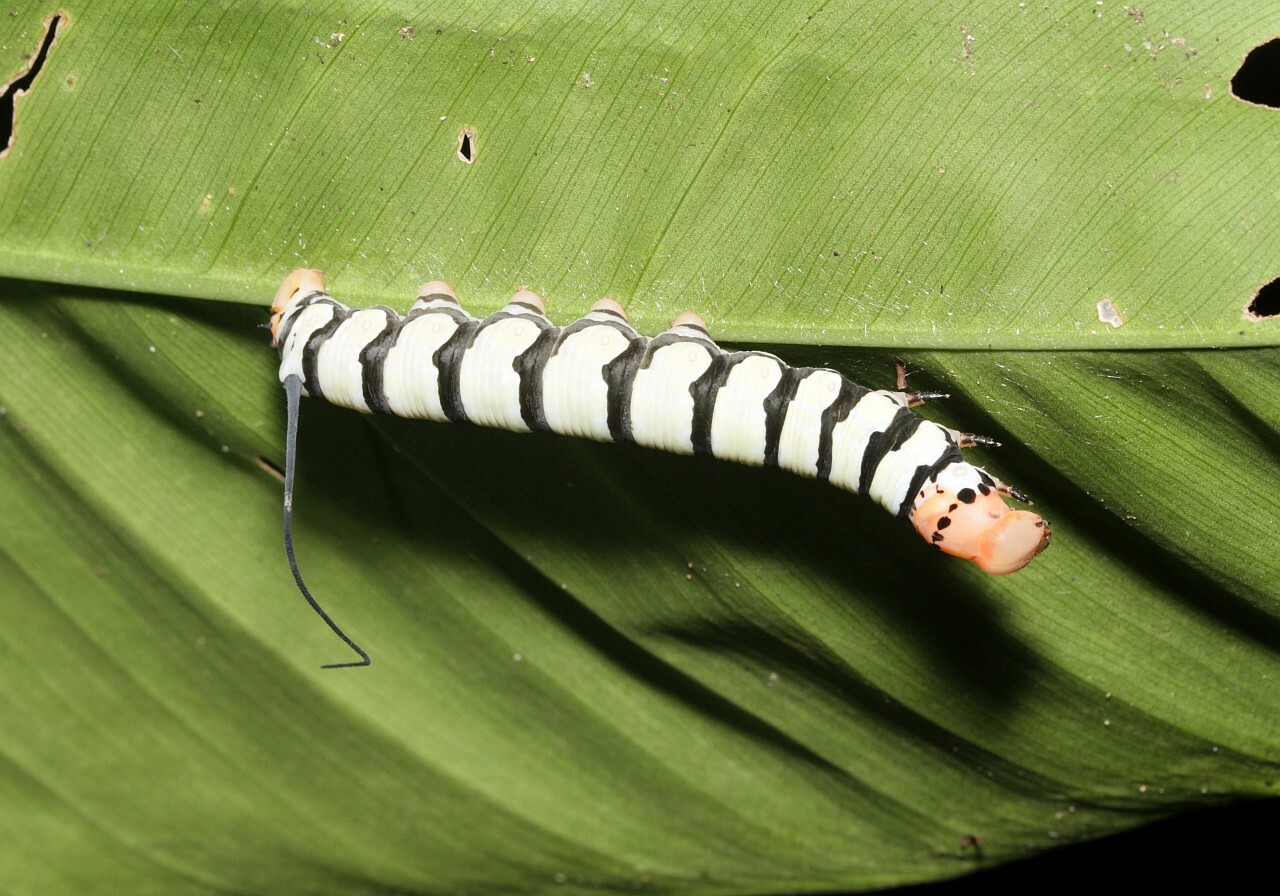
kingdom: Animalia
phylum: Arthropoda
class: Insecta
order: Lepidoptera
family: Sphingidae
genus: Isognathus
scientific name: Isognathus swainsoni
